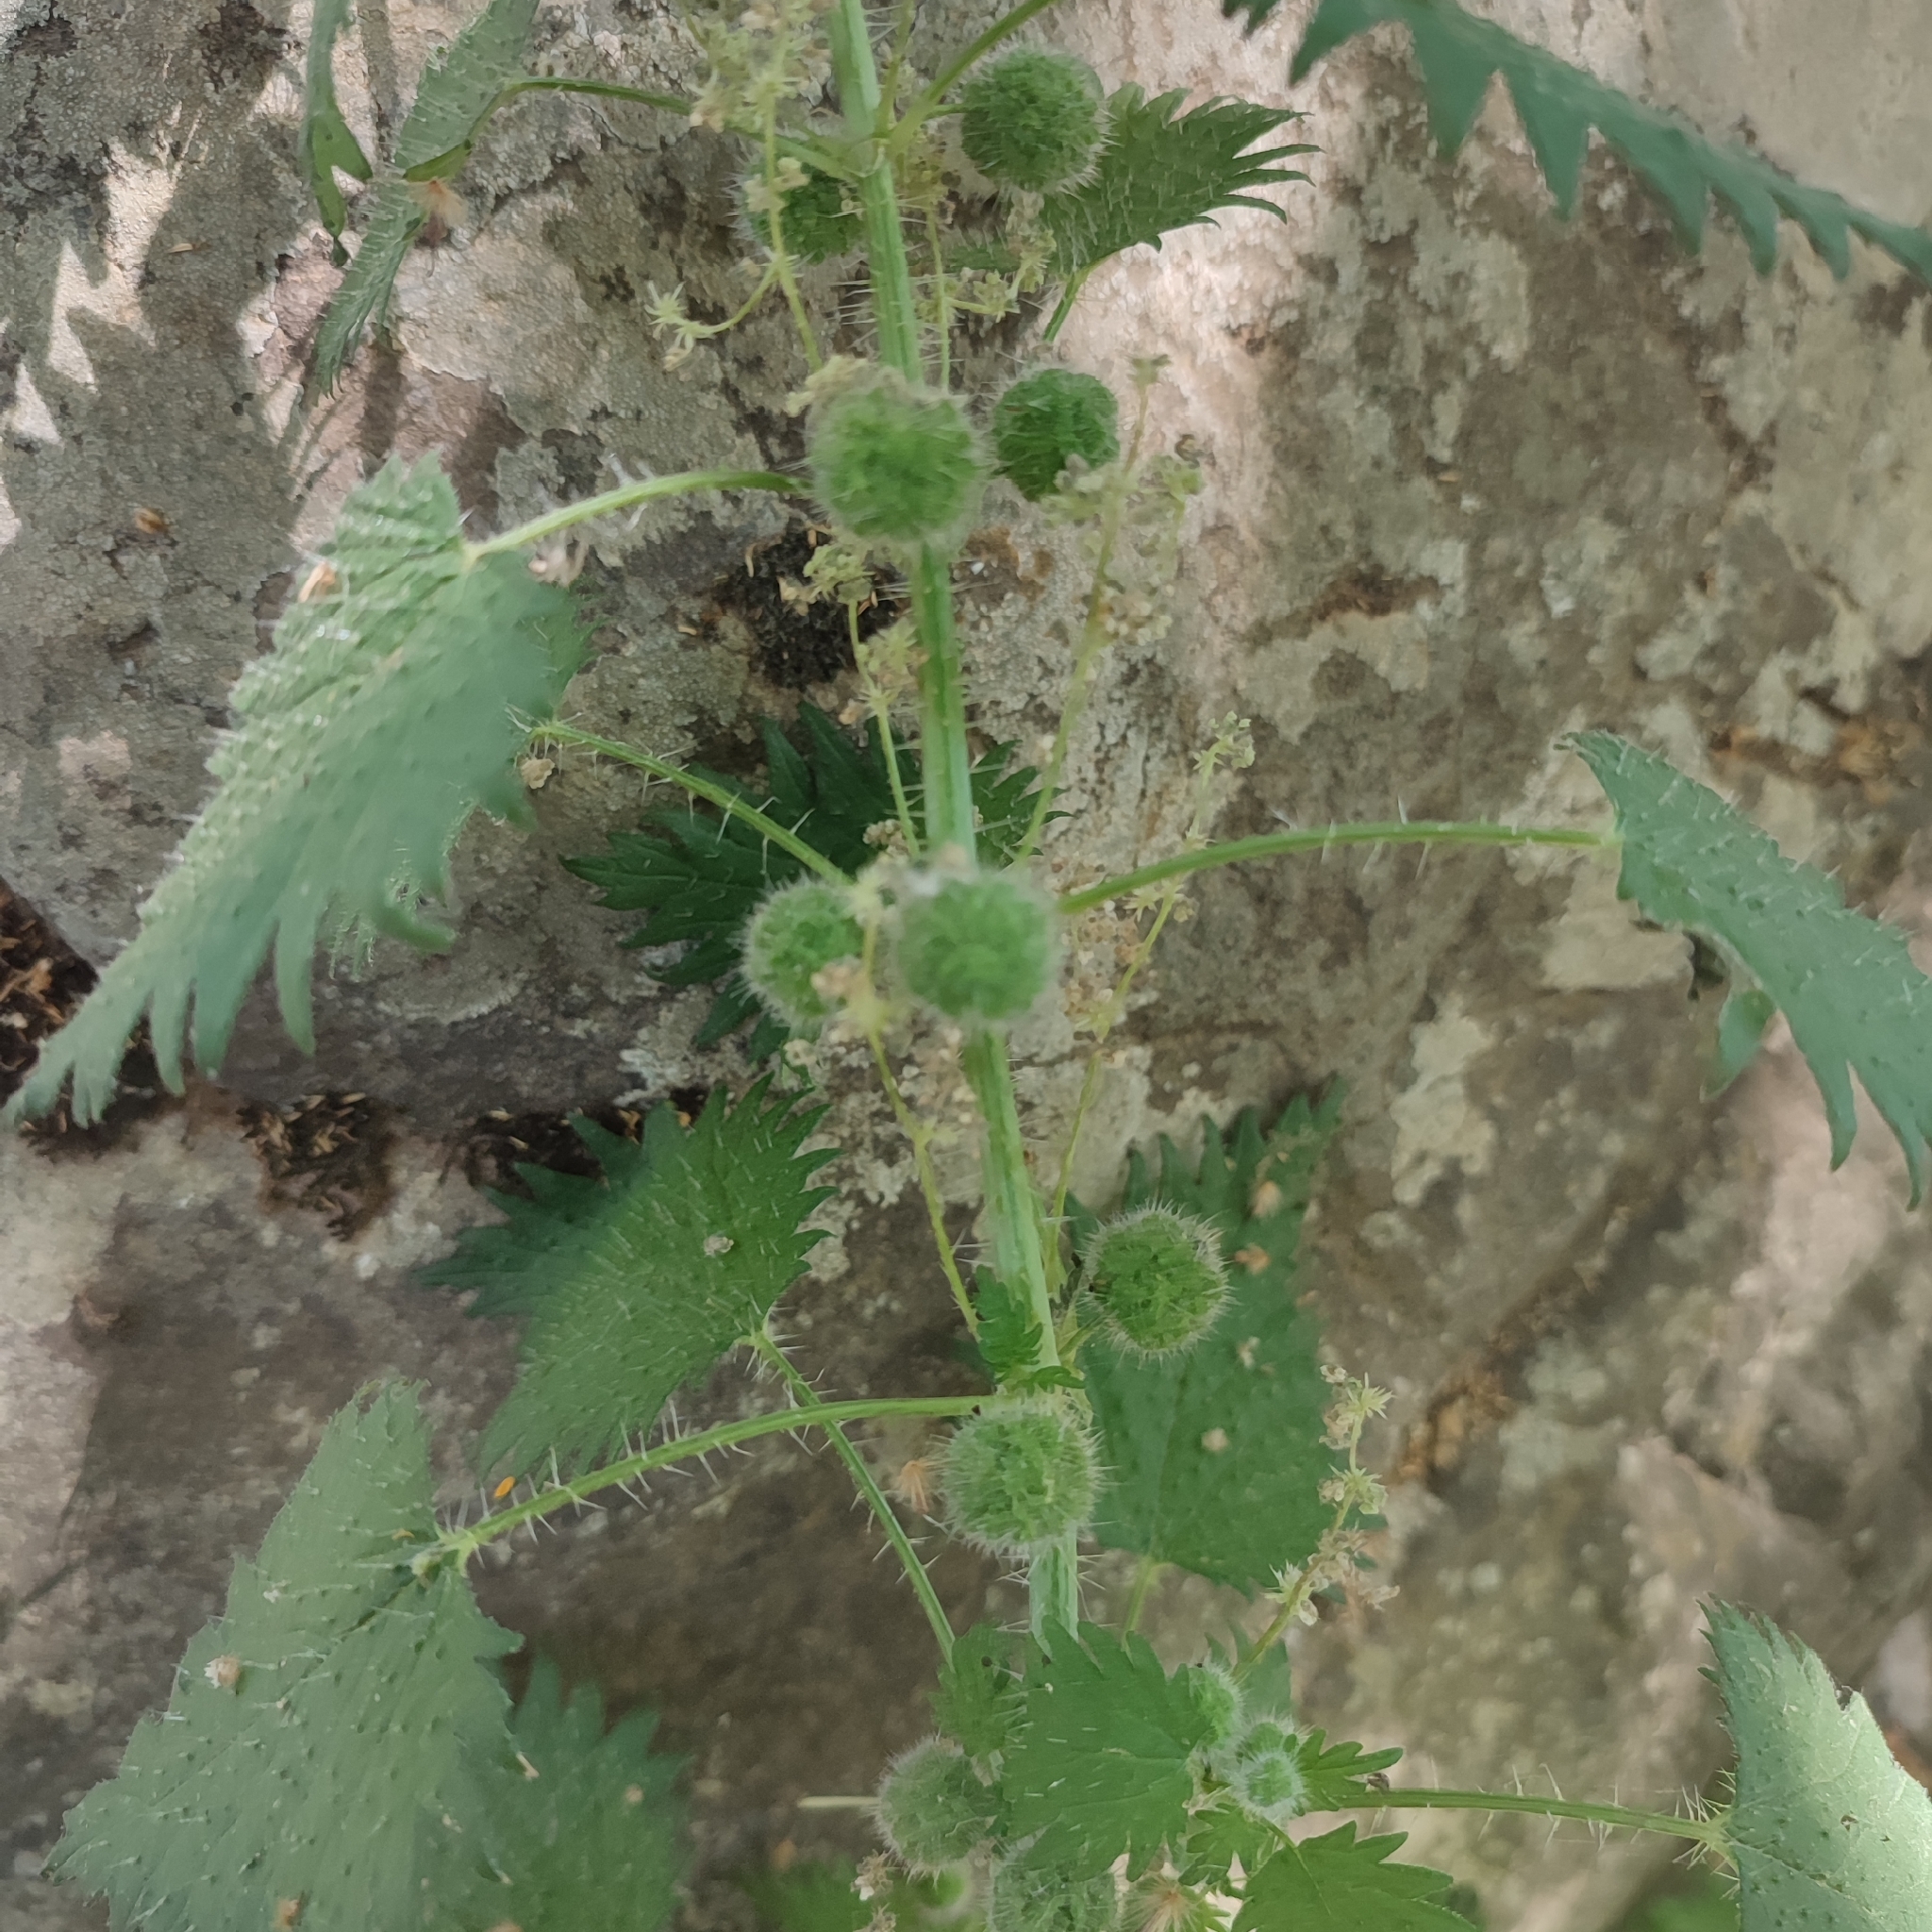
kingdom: Plantae
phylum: Tracheophyta
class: Magnoliopsida
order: Rosales
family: Urticaceae
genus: Urtica
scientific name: Urtica pilulifera
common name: Roman nettle
